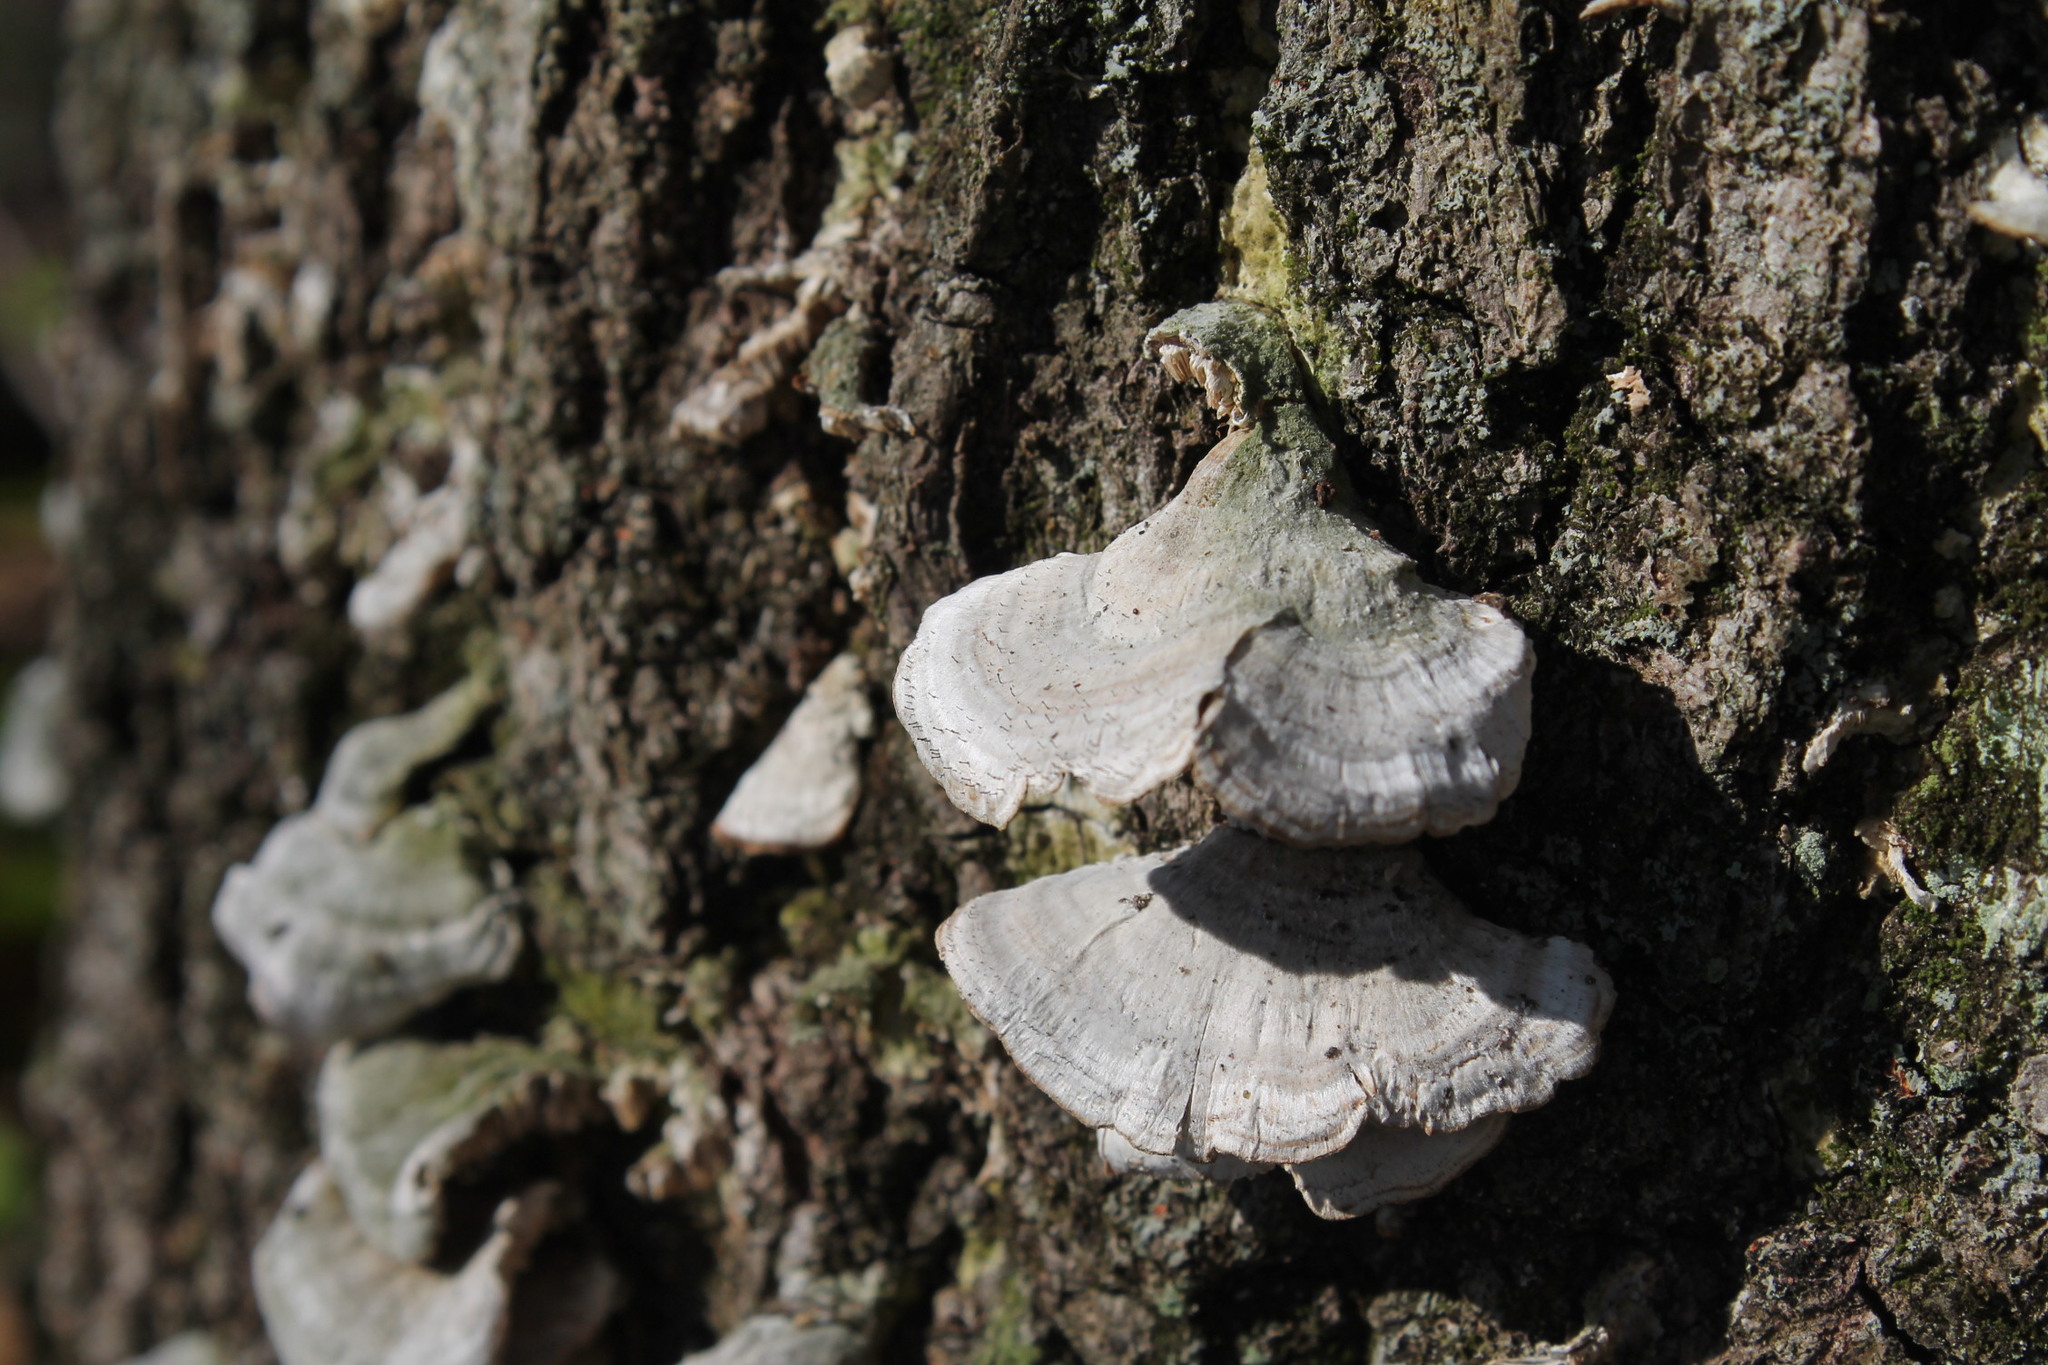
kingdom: Fungi
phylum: Ascomycota
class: Eurotiomycetes
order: Mycocaliciales
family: Mycocaliciaceae
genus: Phaeocalicium
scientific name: Phaeocalicium polyporaeum
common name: Fairy pins
